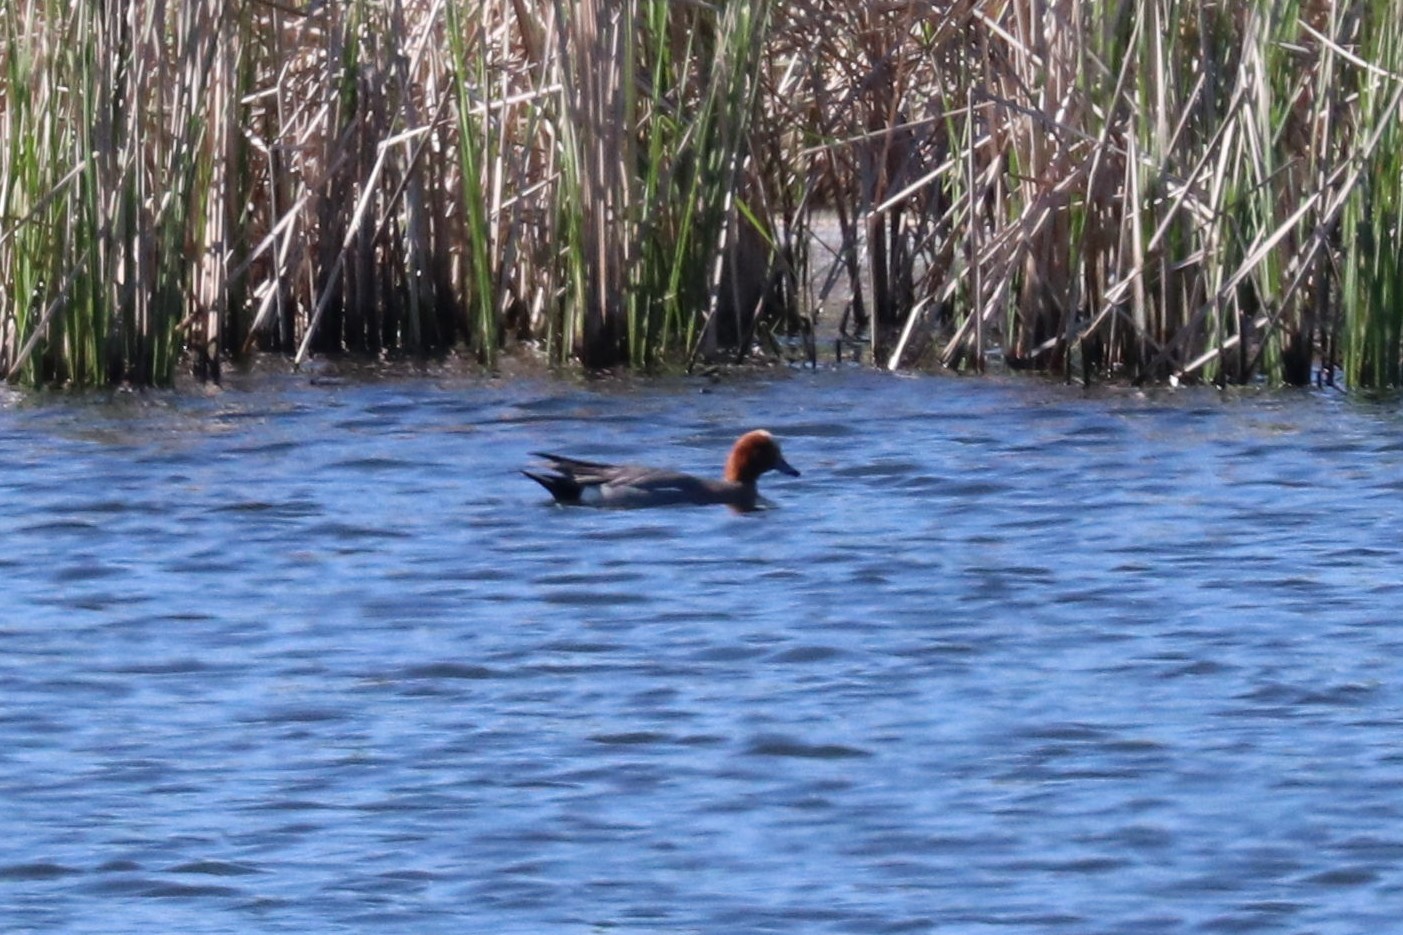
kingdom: Animalia
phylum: Chordata
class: Aves
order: Anseriformes
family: Anatidae
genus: Mareca
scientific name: Mareca penelope
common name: Eurasian wigeon
